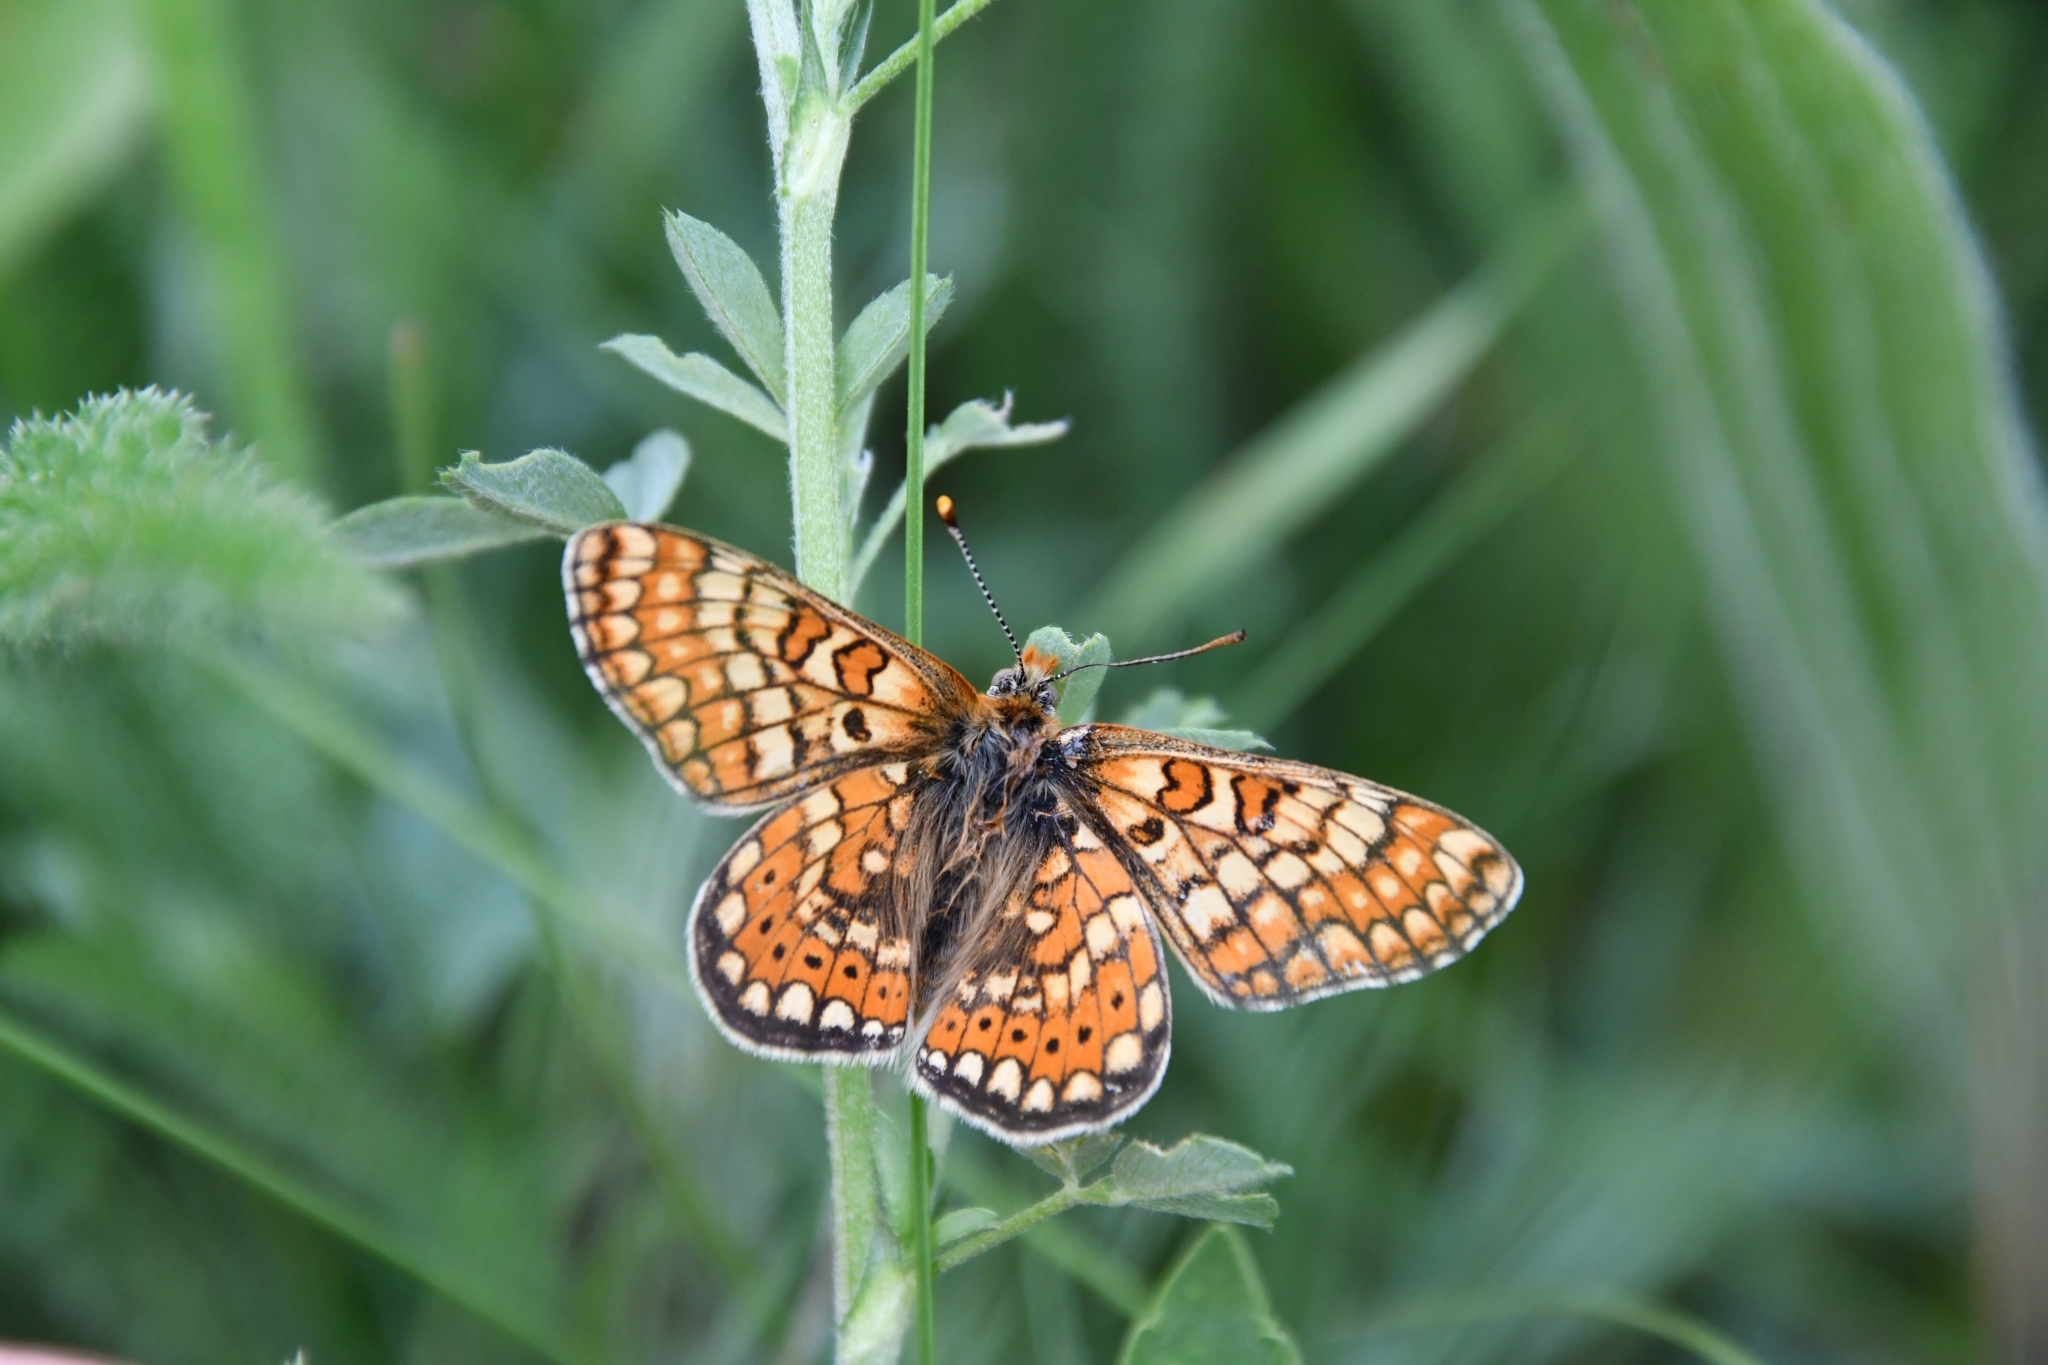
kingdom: Animalia
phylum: Arthropoda
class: Insecta
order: Lepidoptera
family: Nymphalidae
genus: Euphydryas
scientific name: Euphydryas aurinia
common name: Marsh fritillary
